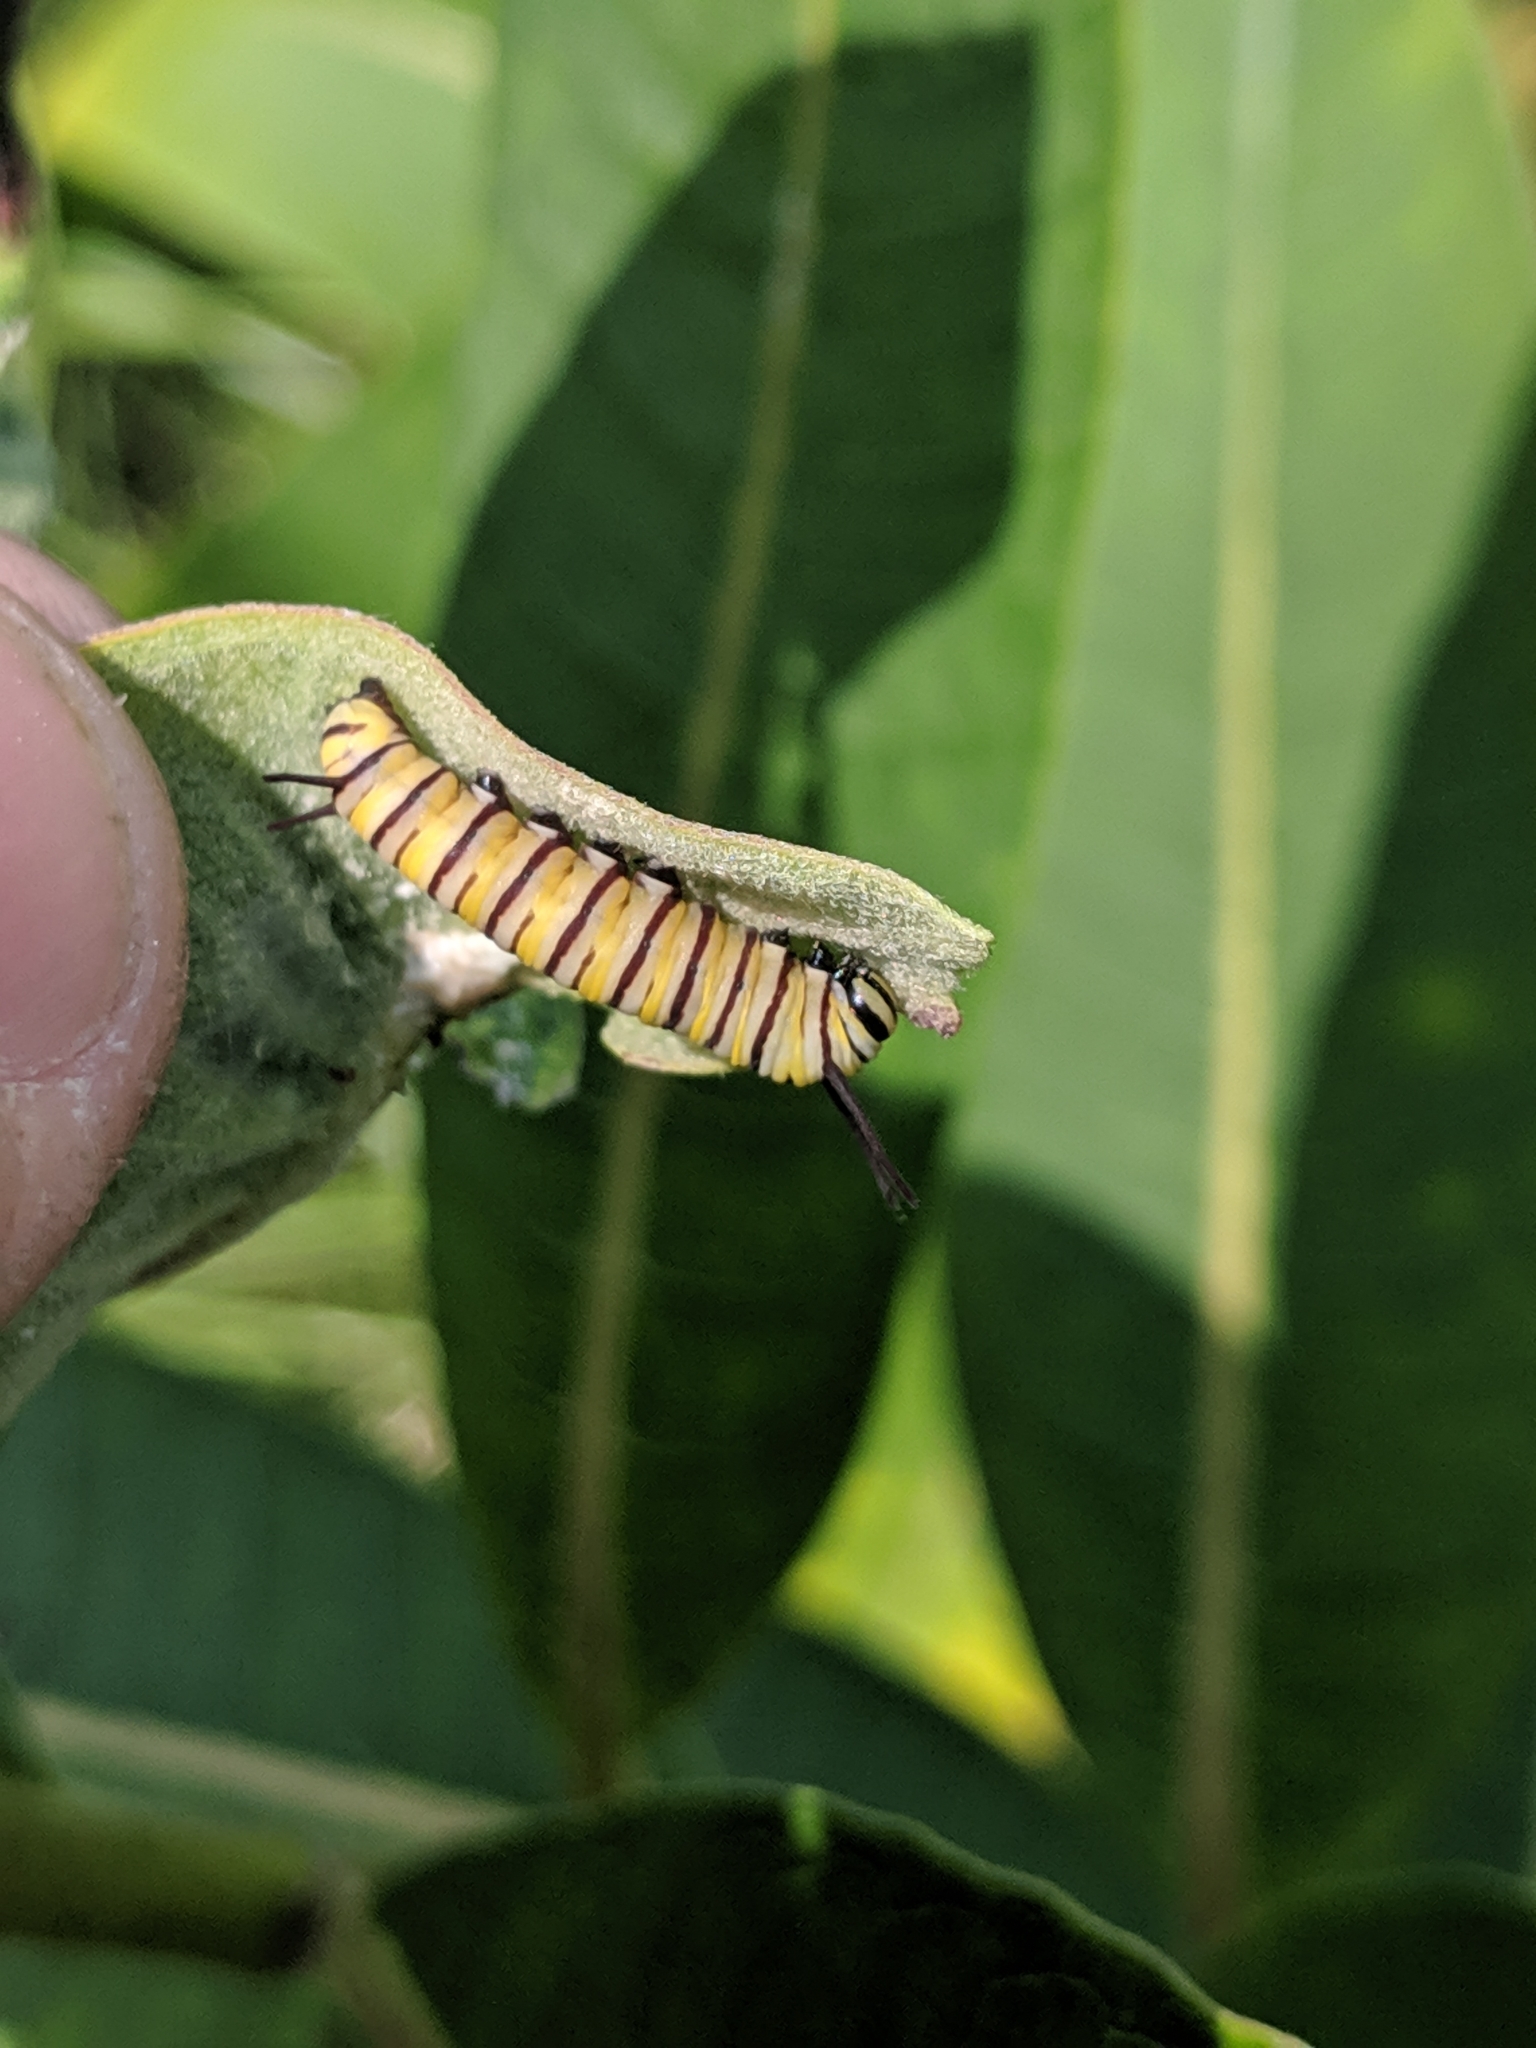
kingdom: Animalia
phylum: Arthropoda
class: Insecta
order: Lepidoptera
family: Nymphalidae
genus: Danaus
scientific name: Danaus plexippus
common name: Monarch
